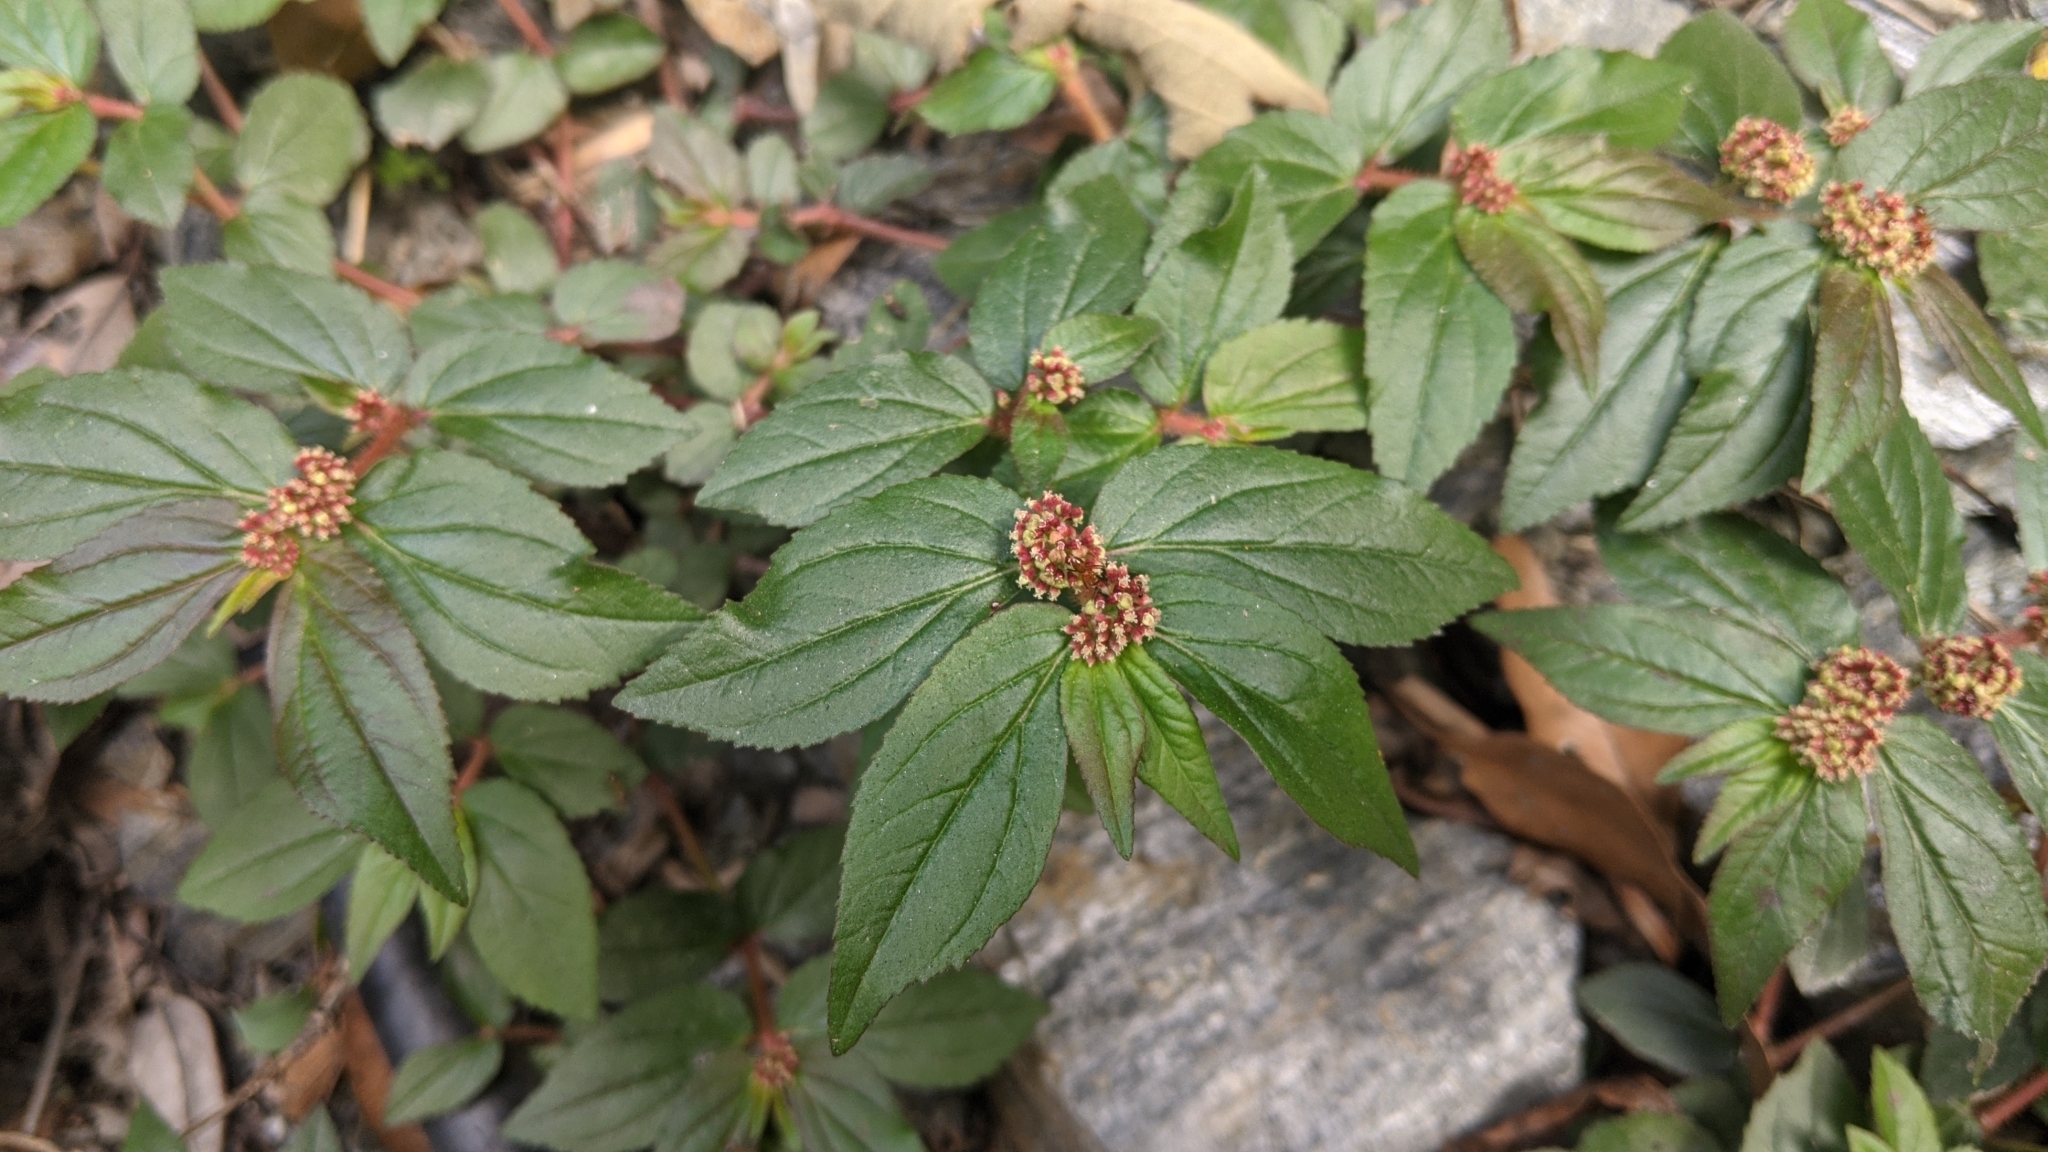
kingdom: Plantae
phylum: Tracheophyta
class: Magnoliopsida
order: Malpighiales
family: Euphorbiaceae
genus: Euphorbia
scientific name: Euphorbia hirta
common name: Pillpod sandmat
